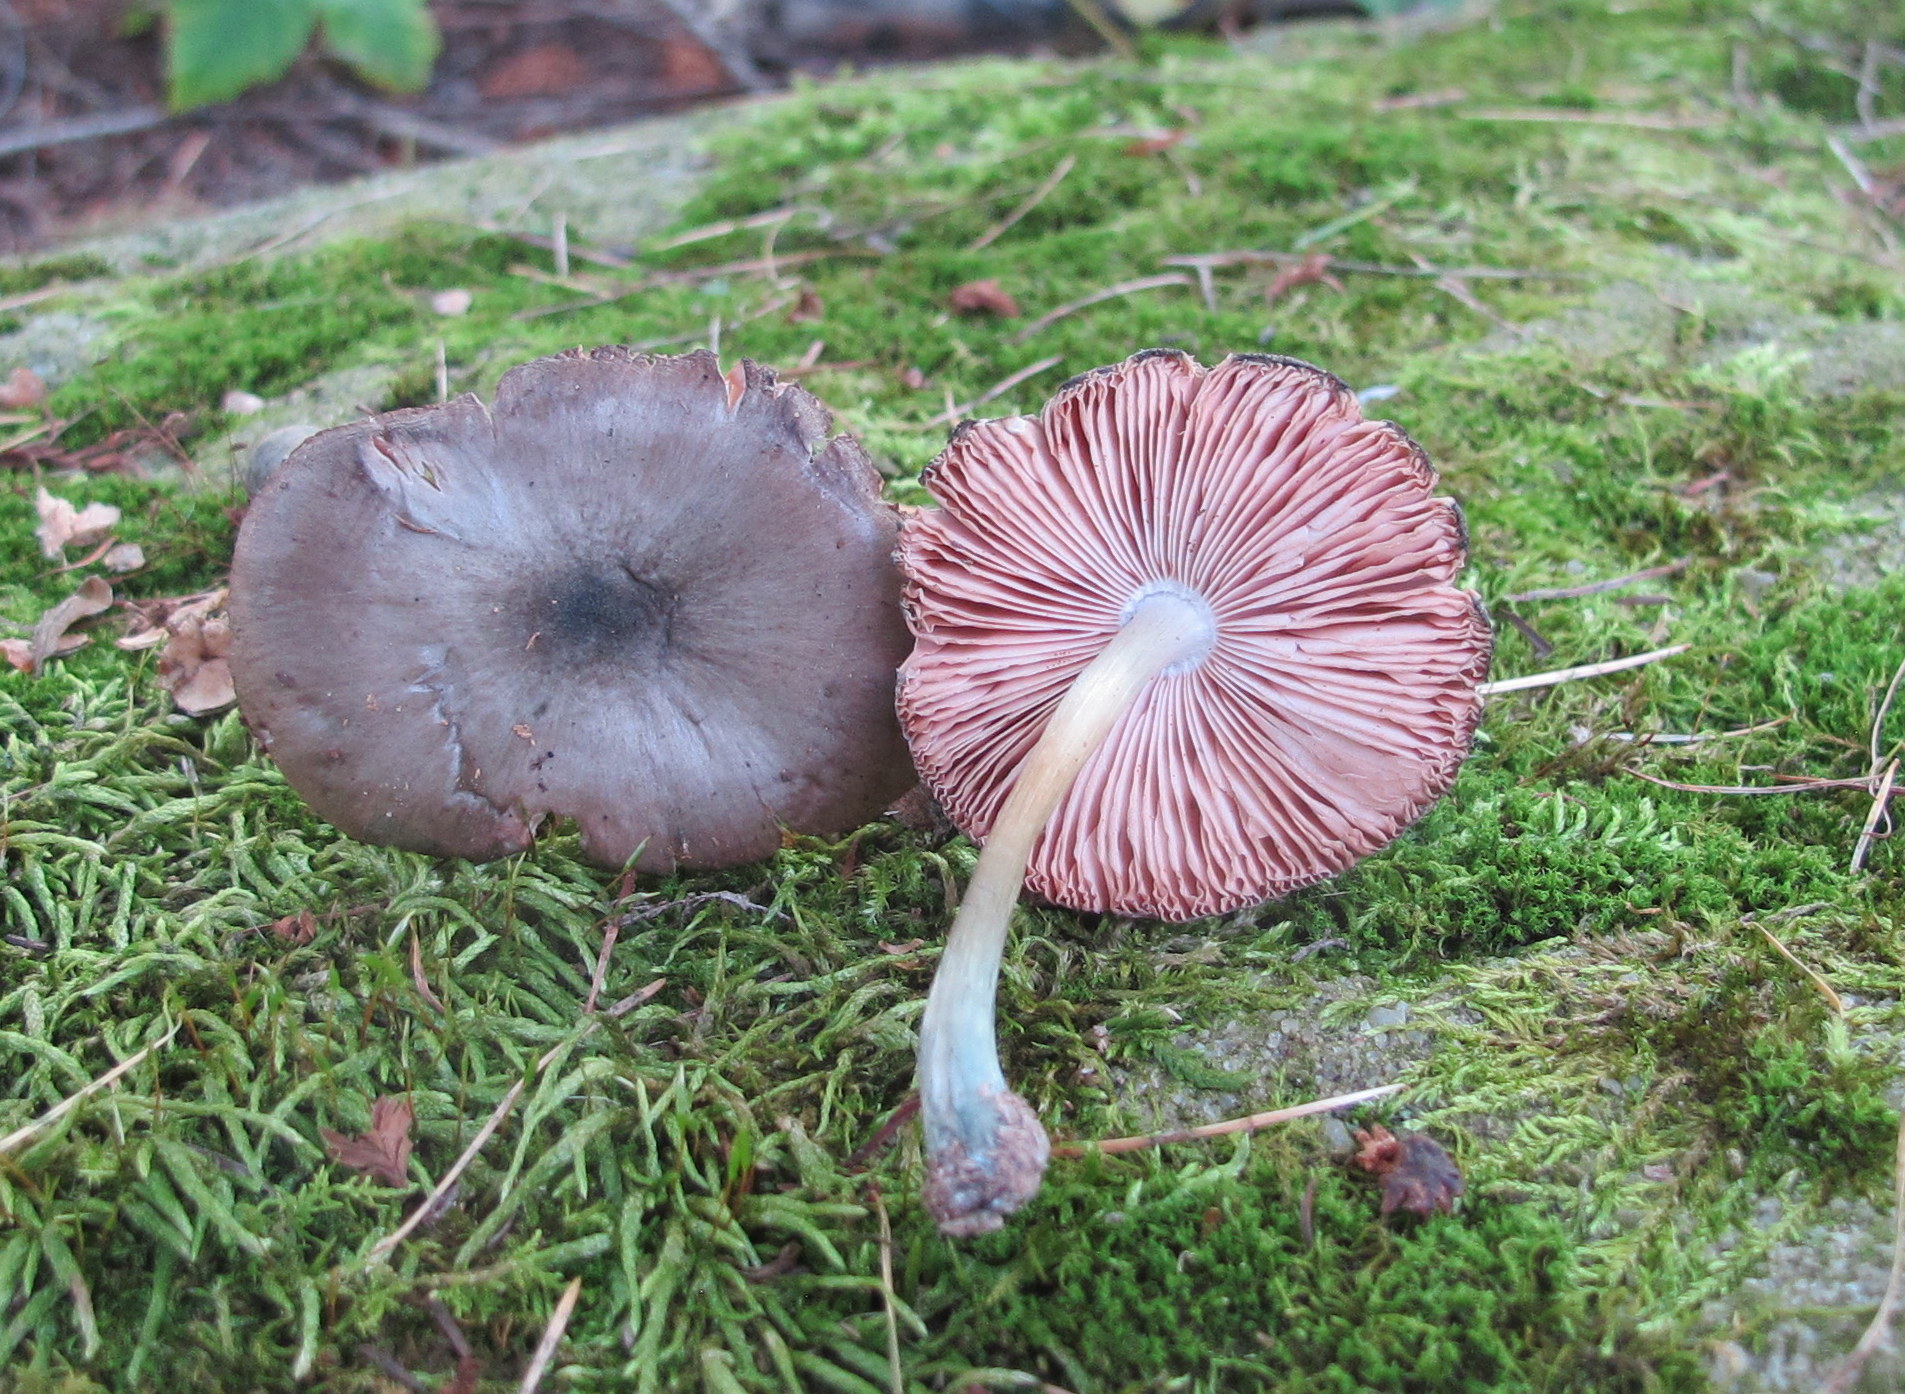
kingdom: Fungi
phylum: Basidiomycota
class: Agaricomycetes
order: Agaricales
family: Pluteaceae
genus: Pluteus
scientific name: Pluteus americanus
